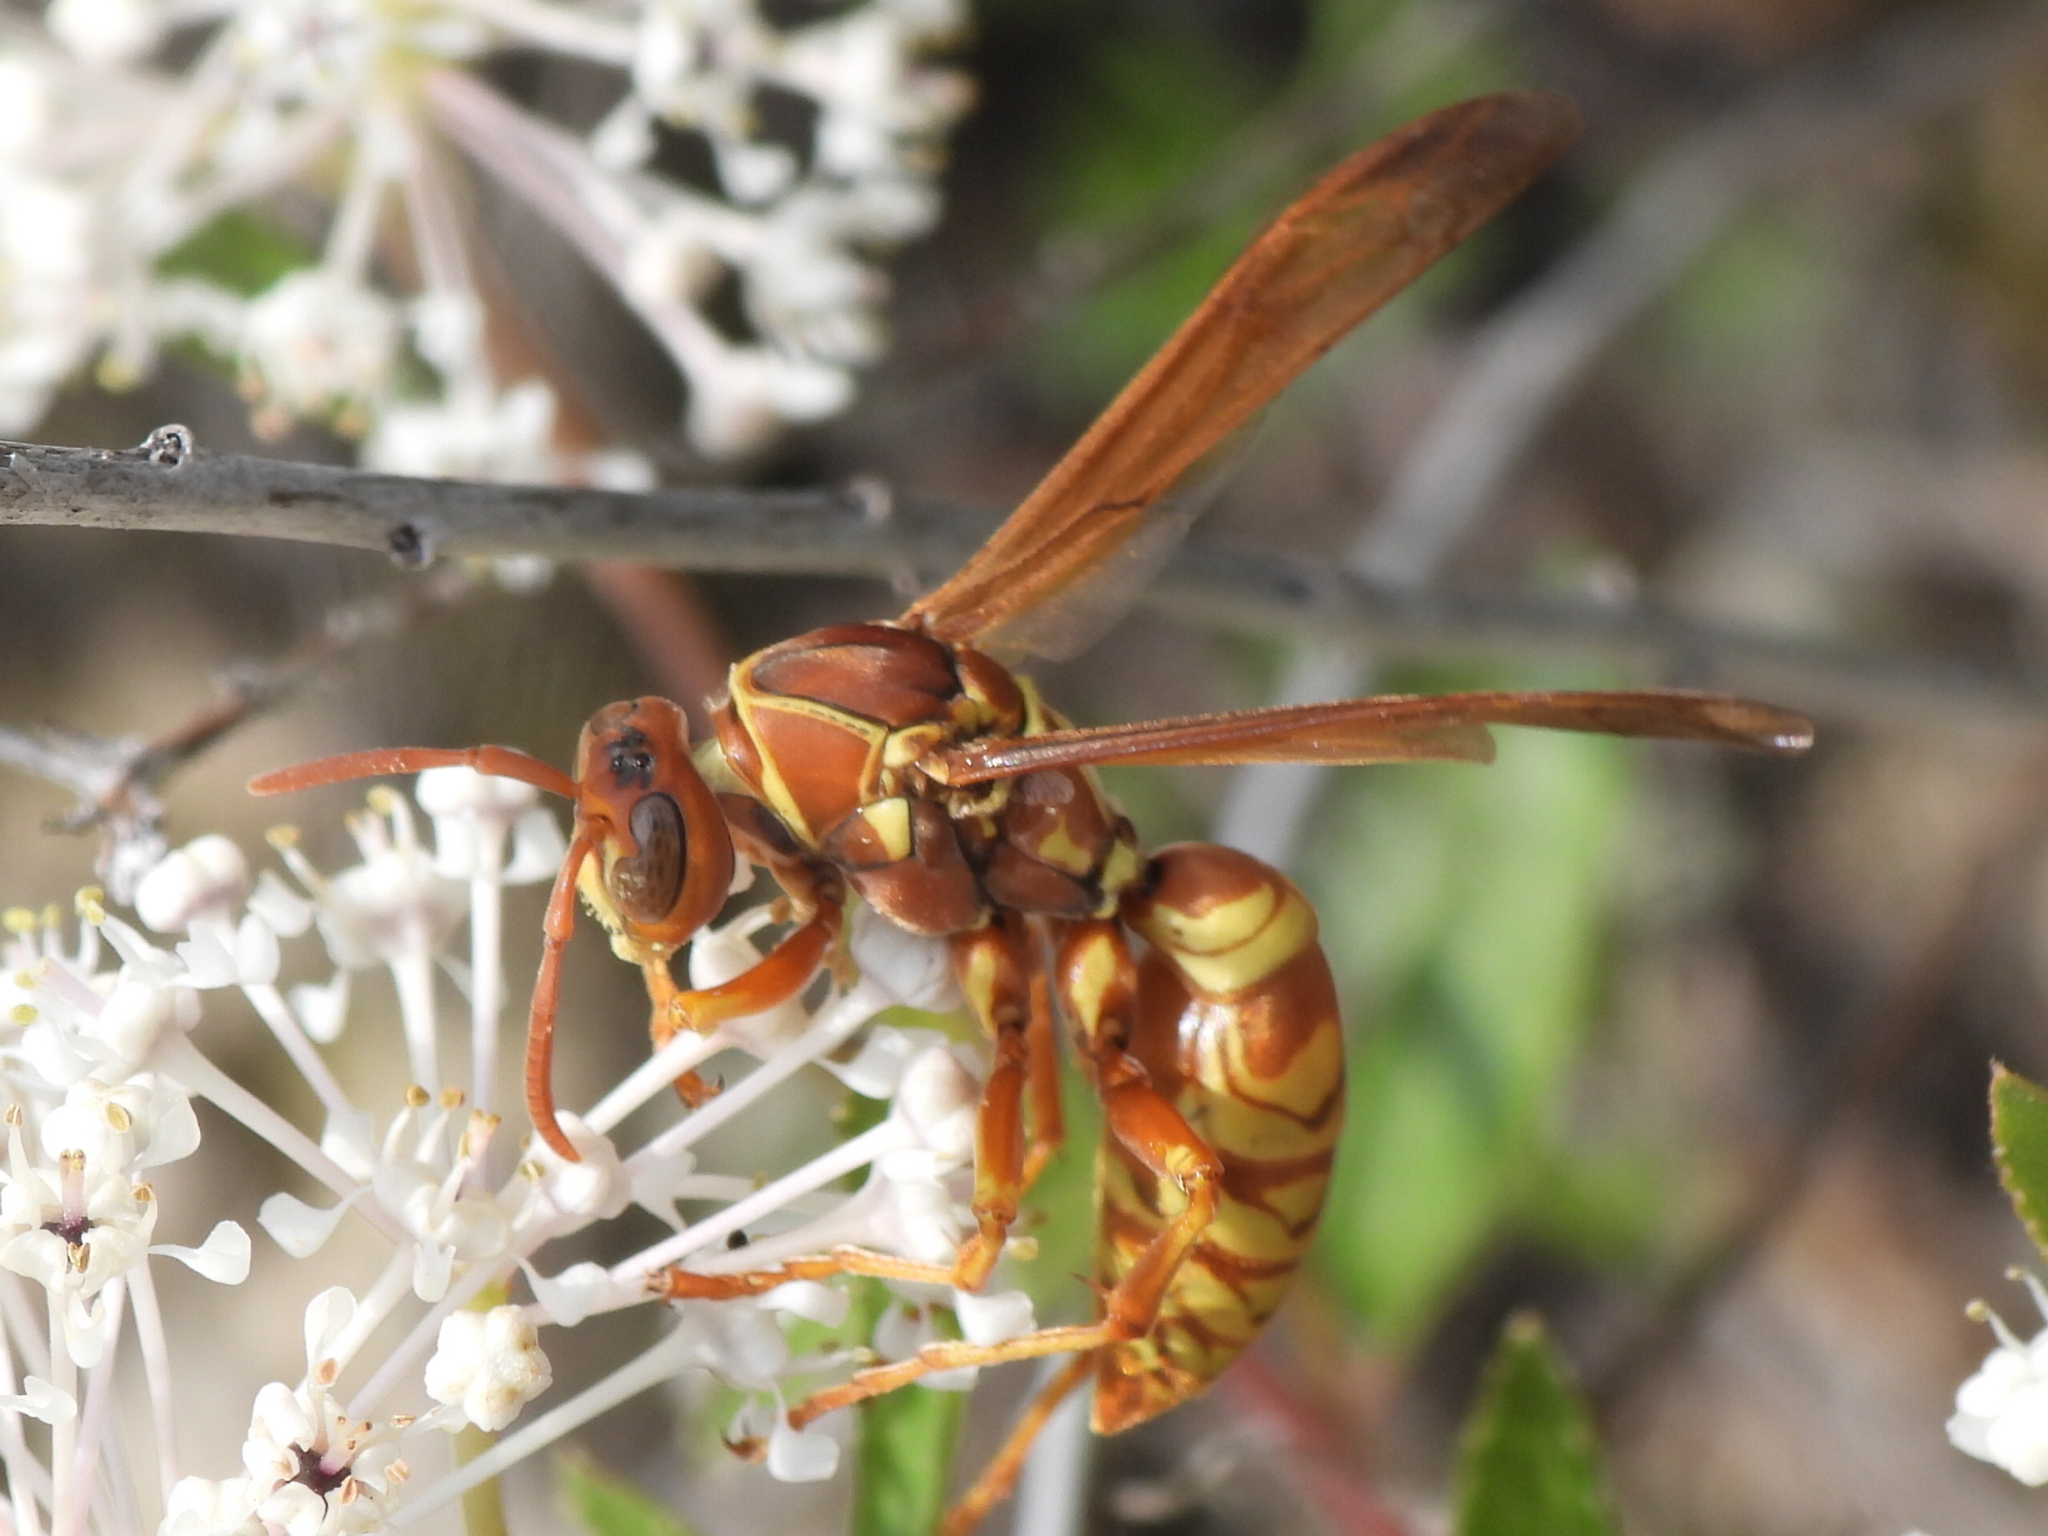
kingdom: Animalia
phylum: Arthropoda
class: Insecta
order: Hymenoptera
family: Eumenidae
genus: Polistes
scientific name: Polistes apachus
